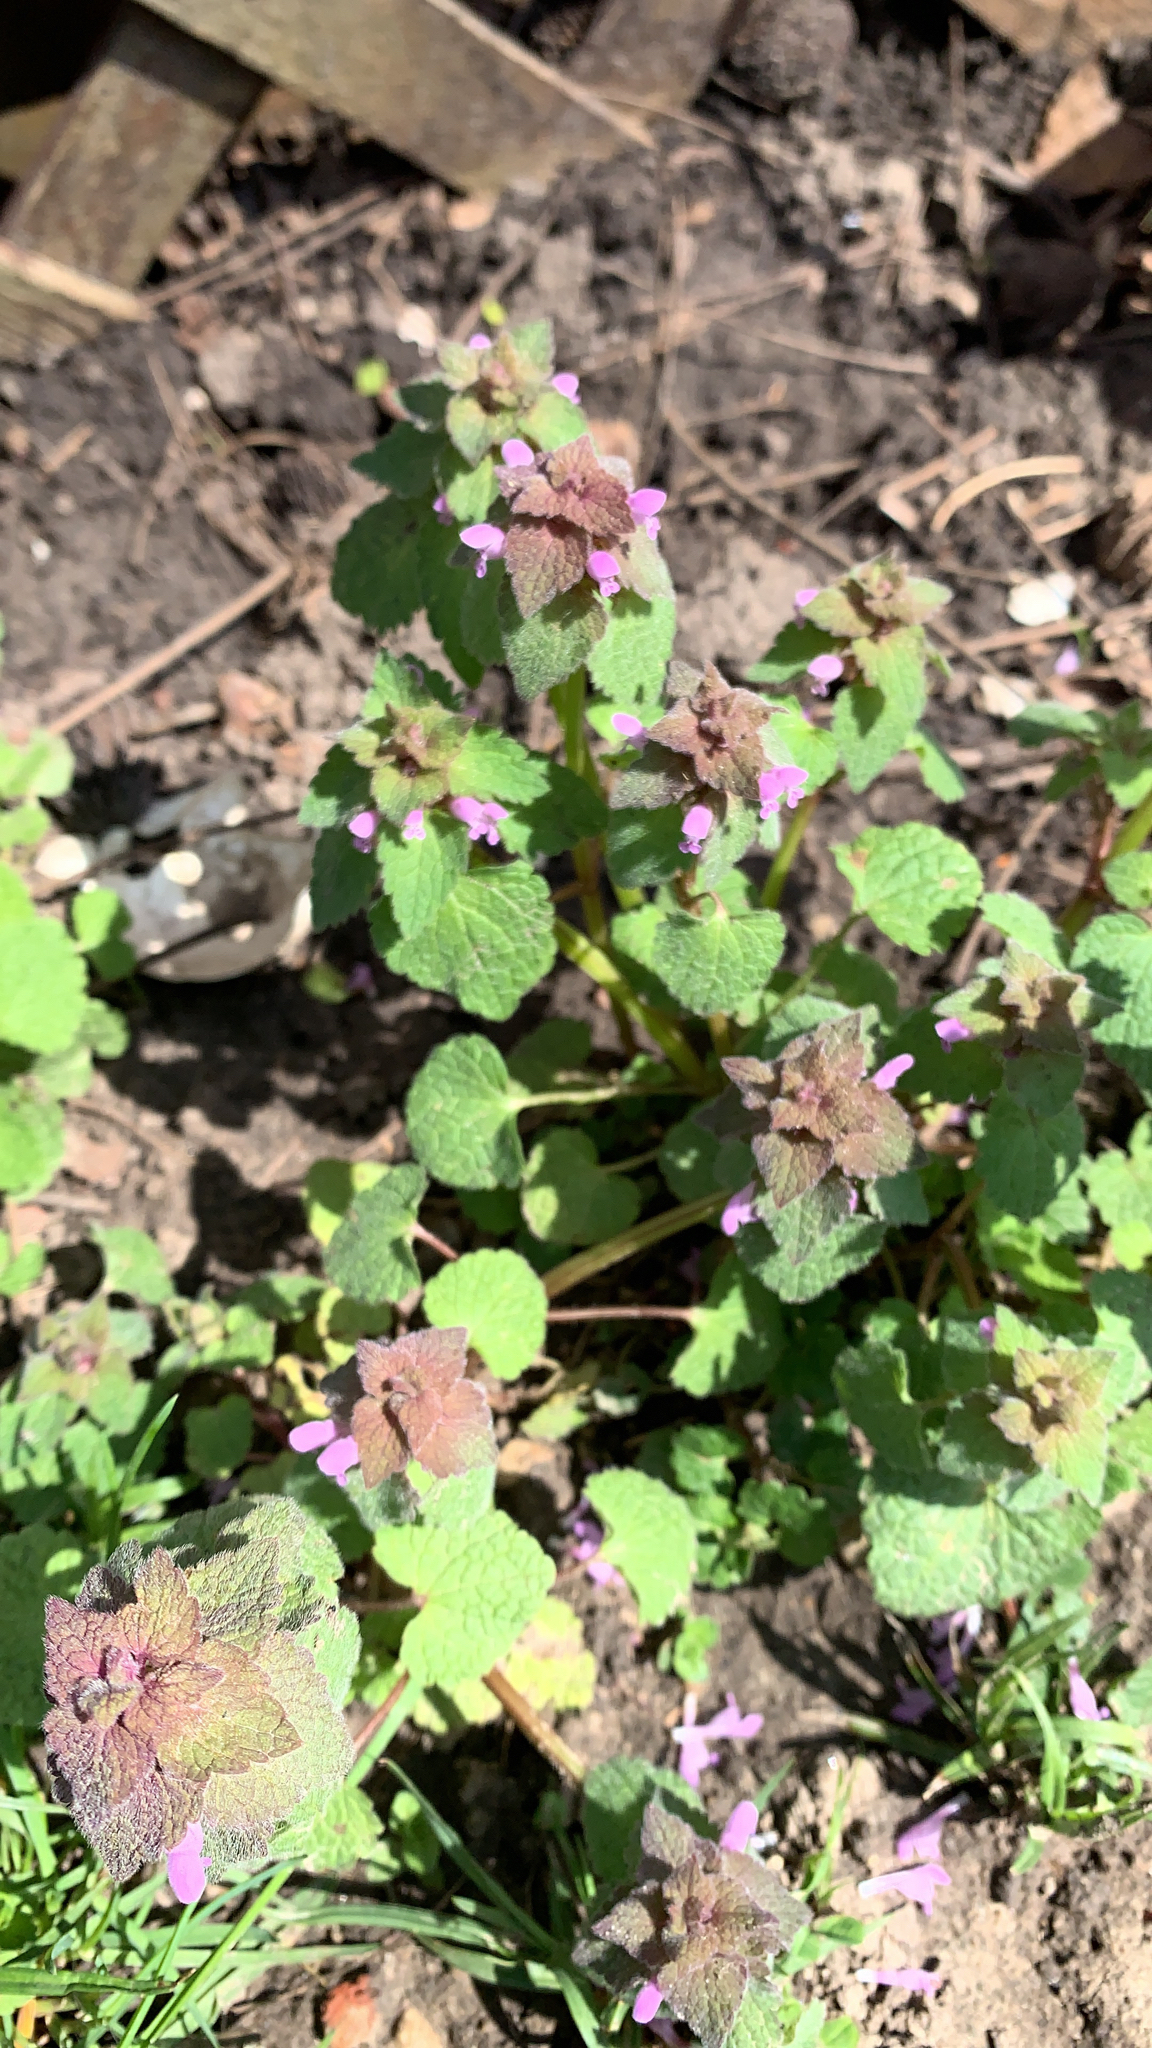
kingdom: Plantae
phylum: Tracheophyta
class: Magnoliopsida
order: Lamiales
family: Lamiaceae
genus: Lamium
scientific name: Lamium purpureum
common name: Red dead-nettle
